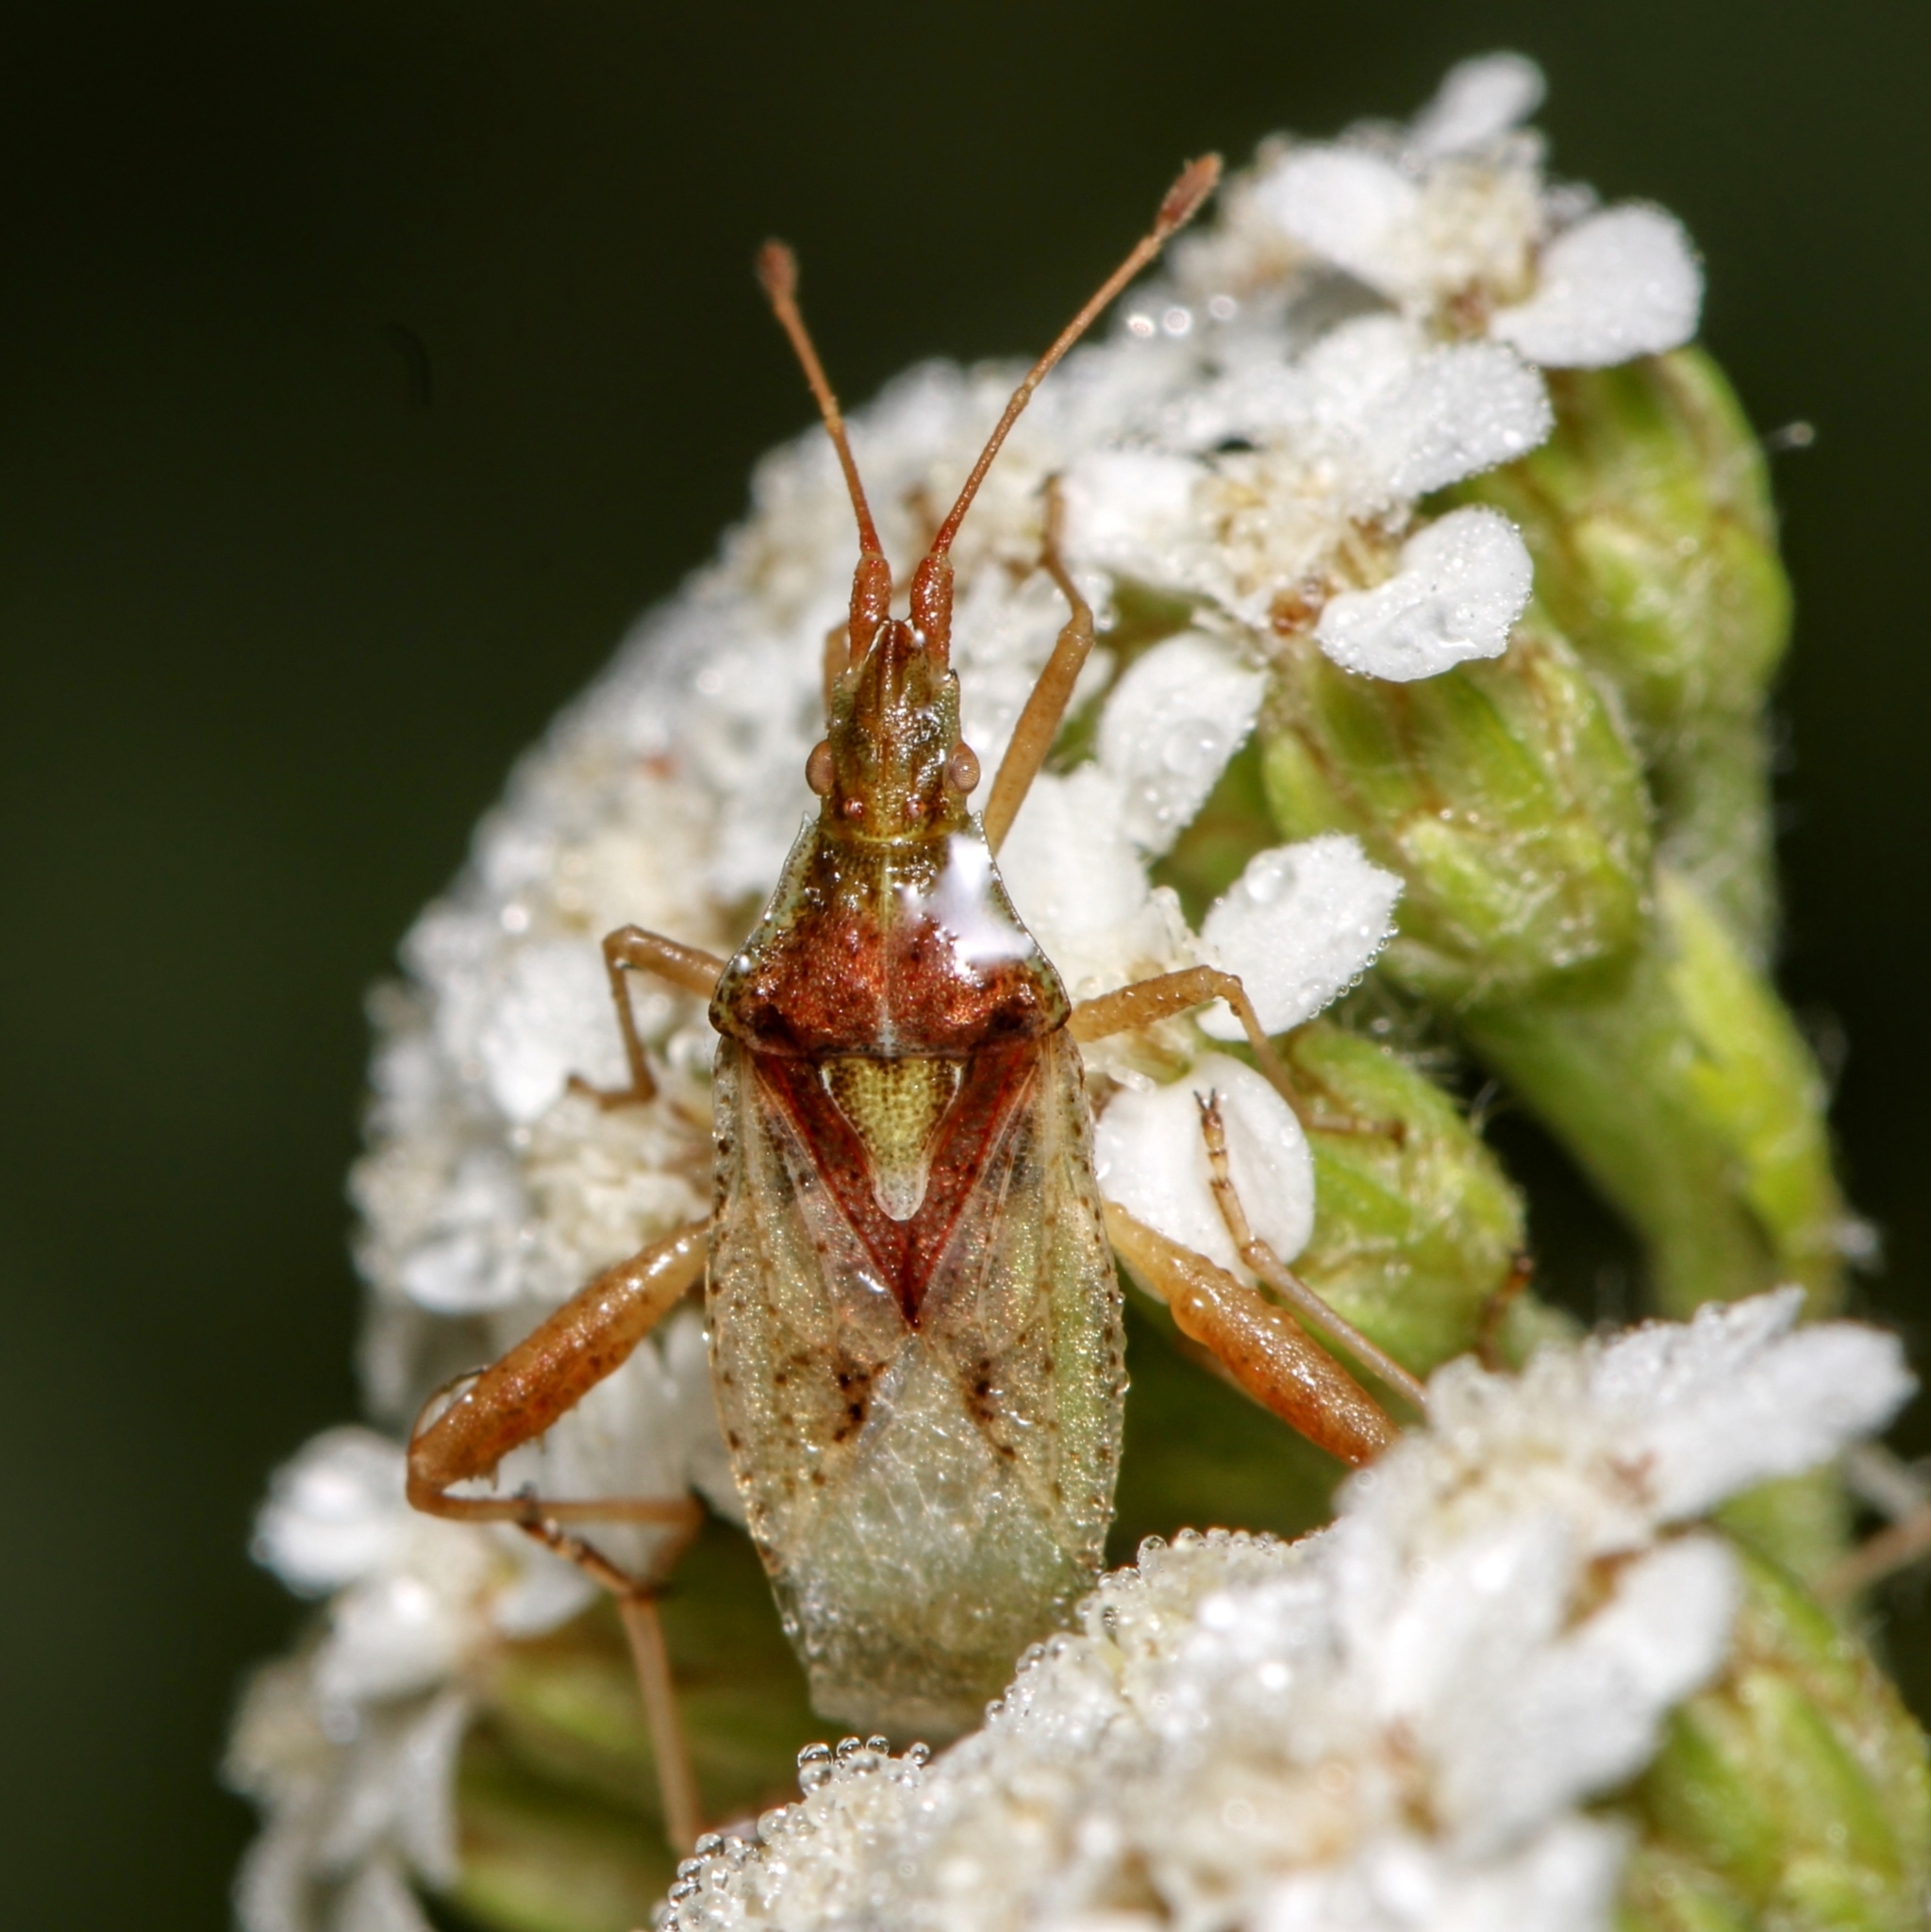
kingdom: Animalia
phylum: Arthropoda
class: Insecta
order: Hemiptera
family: Rhopalidae
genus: Harmostes
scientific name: Harmostes reflexulus
